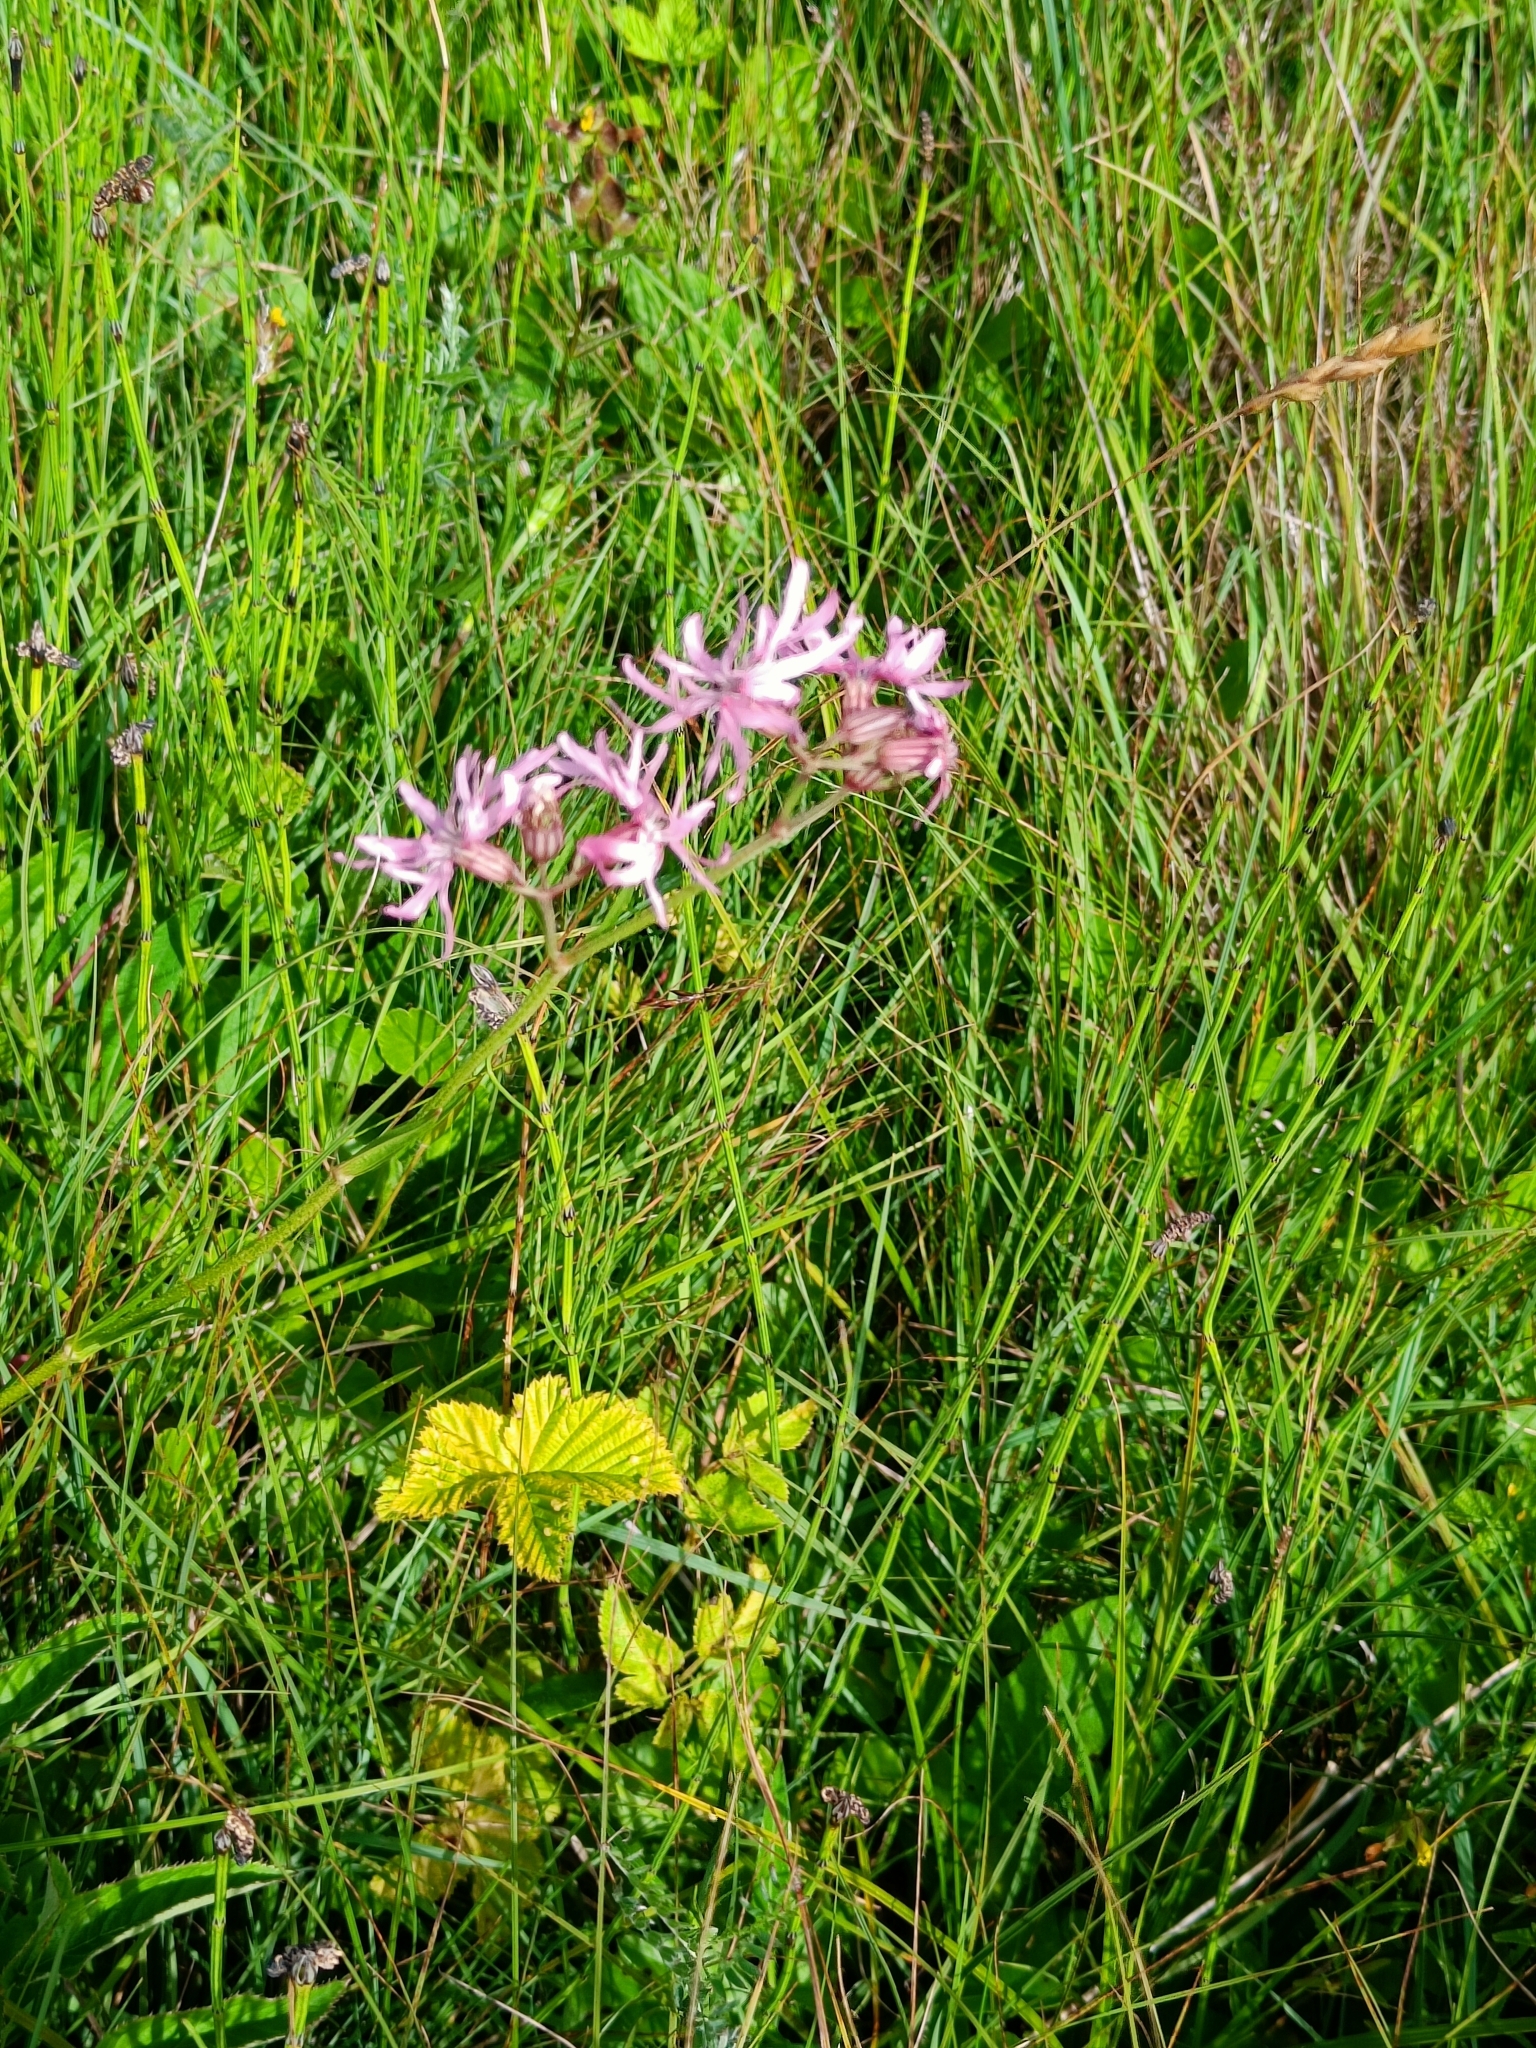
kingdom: Plantae
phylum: Tracheophyta
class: Magnoliopsida
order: Caryophyllales
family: Caryophyllaceae
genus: Silene
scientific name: Silene flos-cuculi
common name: Ragged-robin
